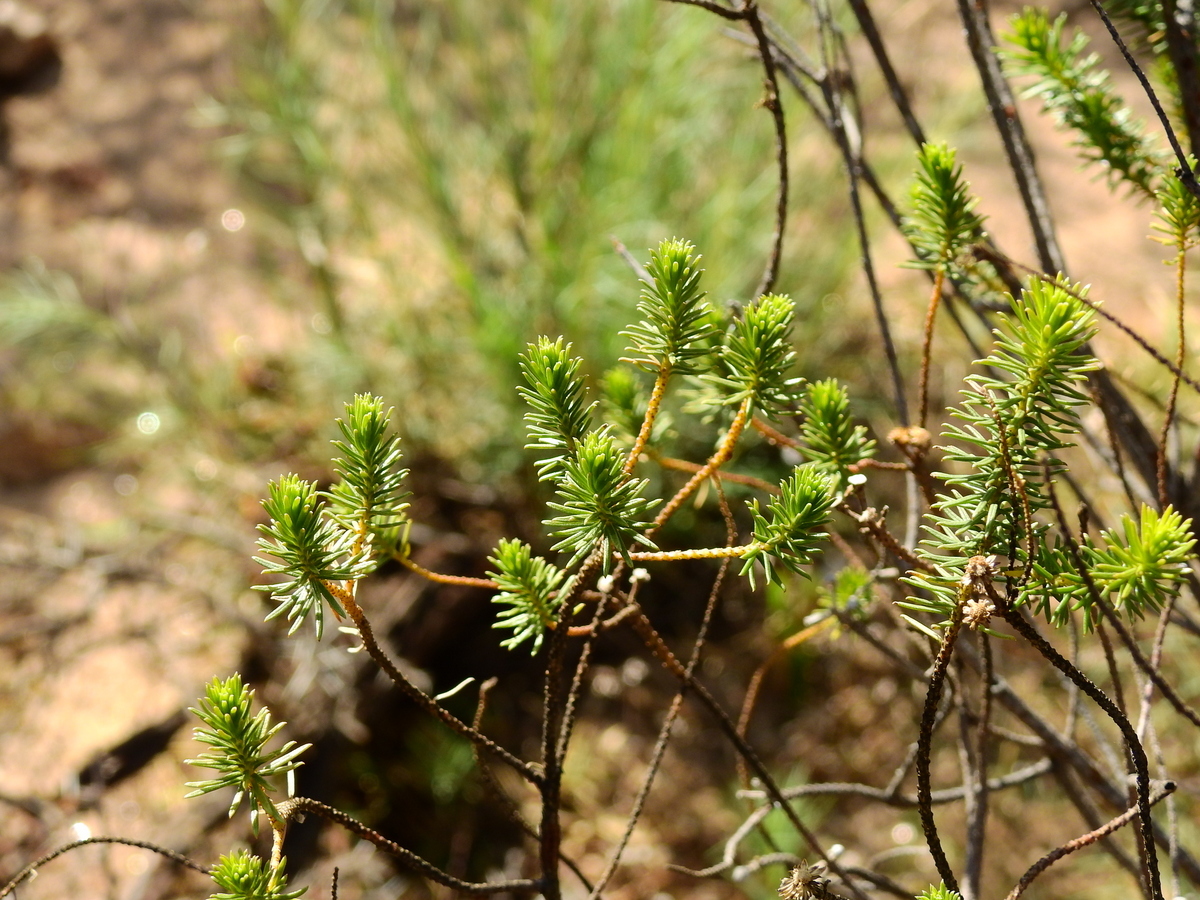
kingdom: Plantae
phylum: Tracheophyta
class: Magnoliopsida
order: Asterales
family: Asteraceae
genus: Baccharis
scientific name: Baccharis aliena
